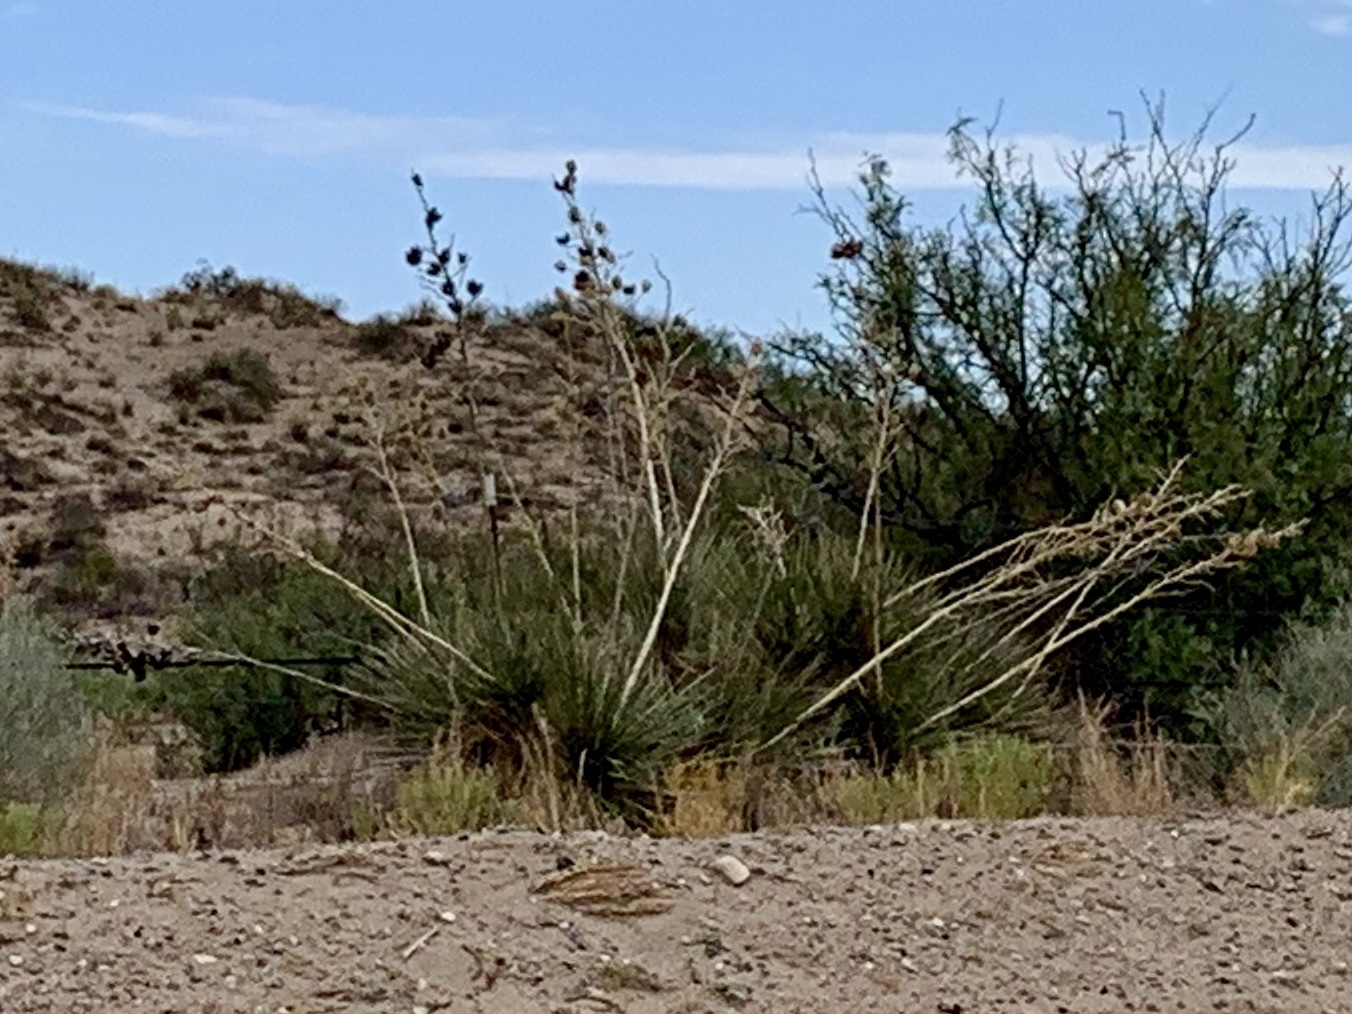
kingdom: Plantae
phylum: Tracheophyta
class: Liliopsida
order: Asparagales
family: Asparagaceae
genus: Yucca
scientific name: Yucca elata
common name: Palmella
